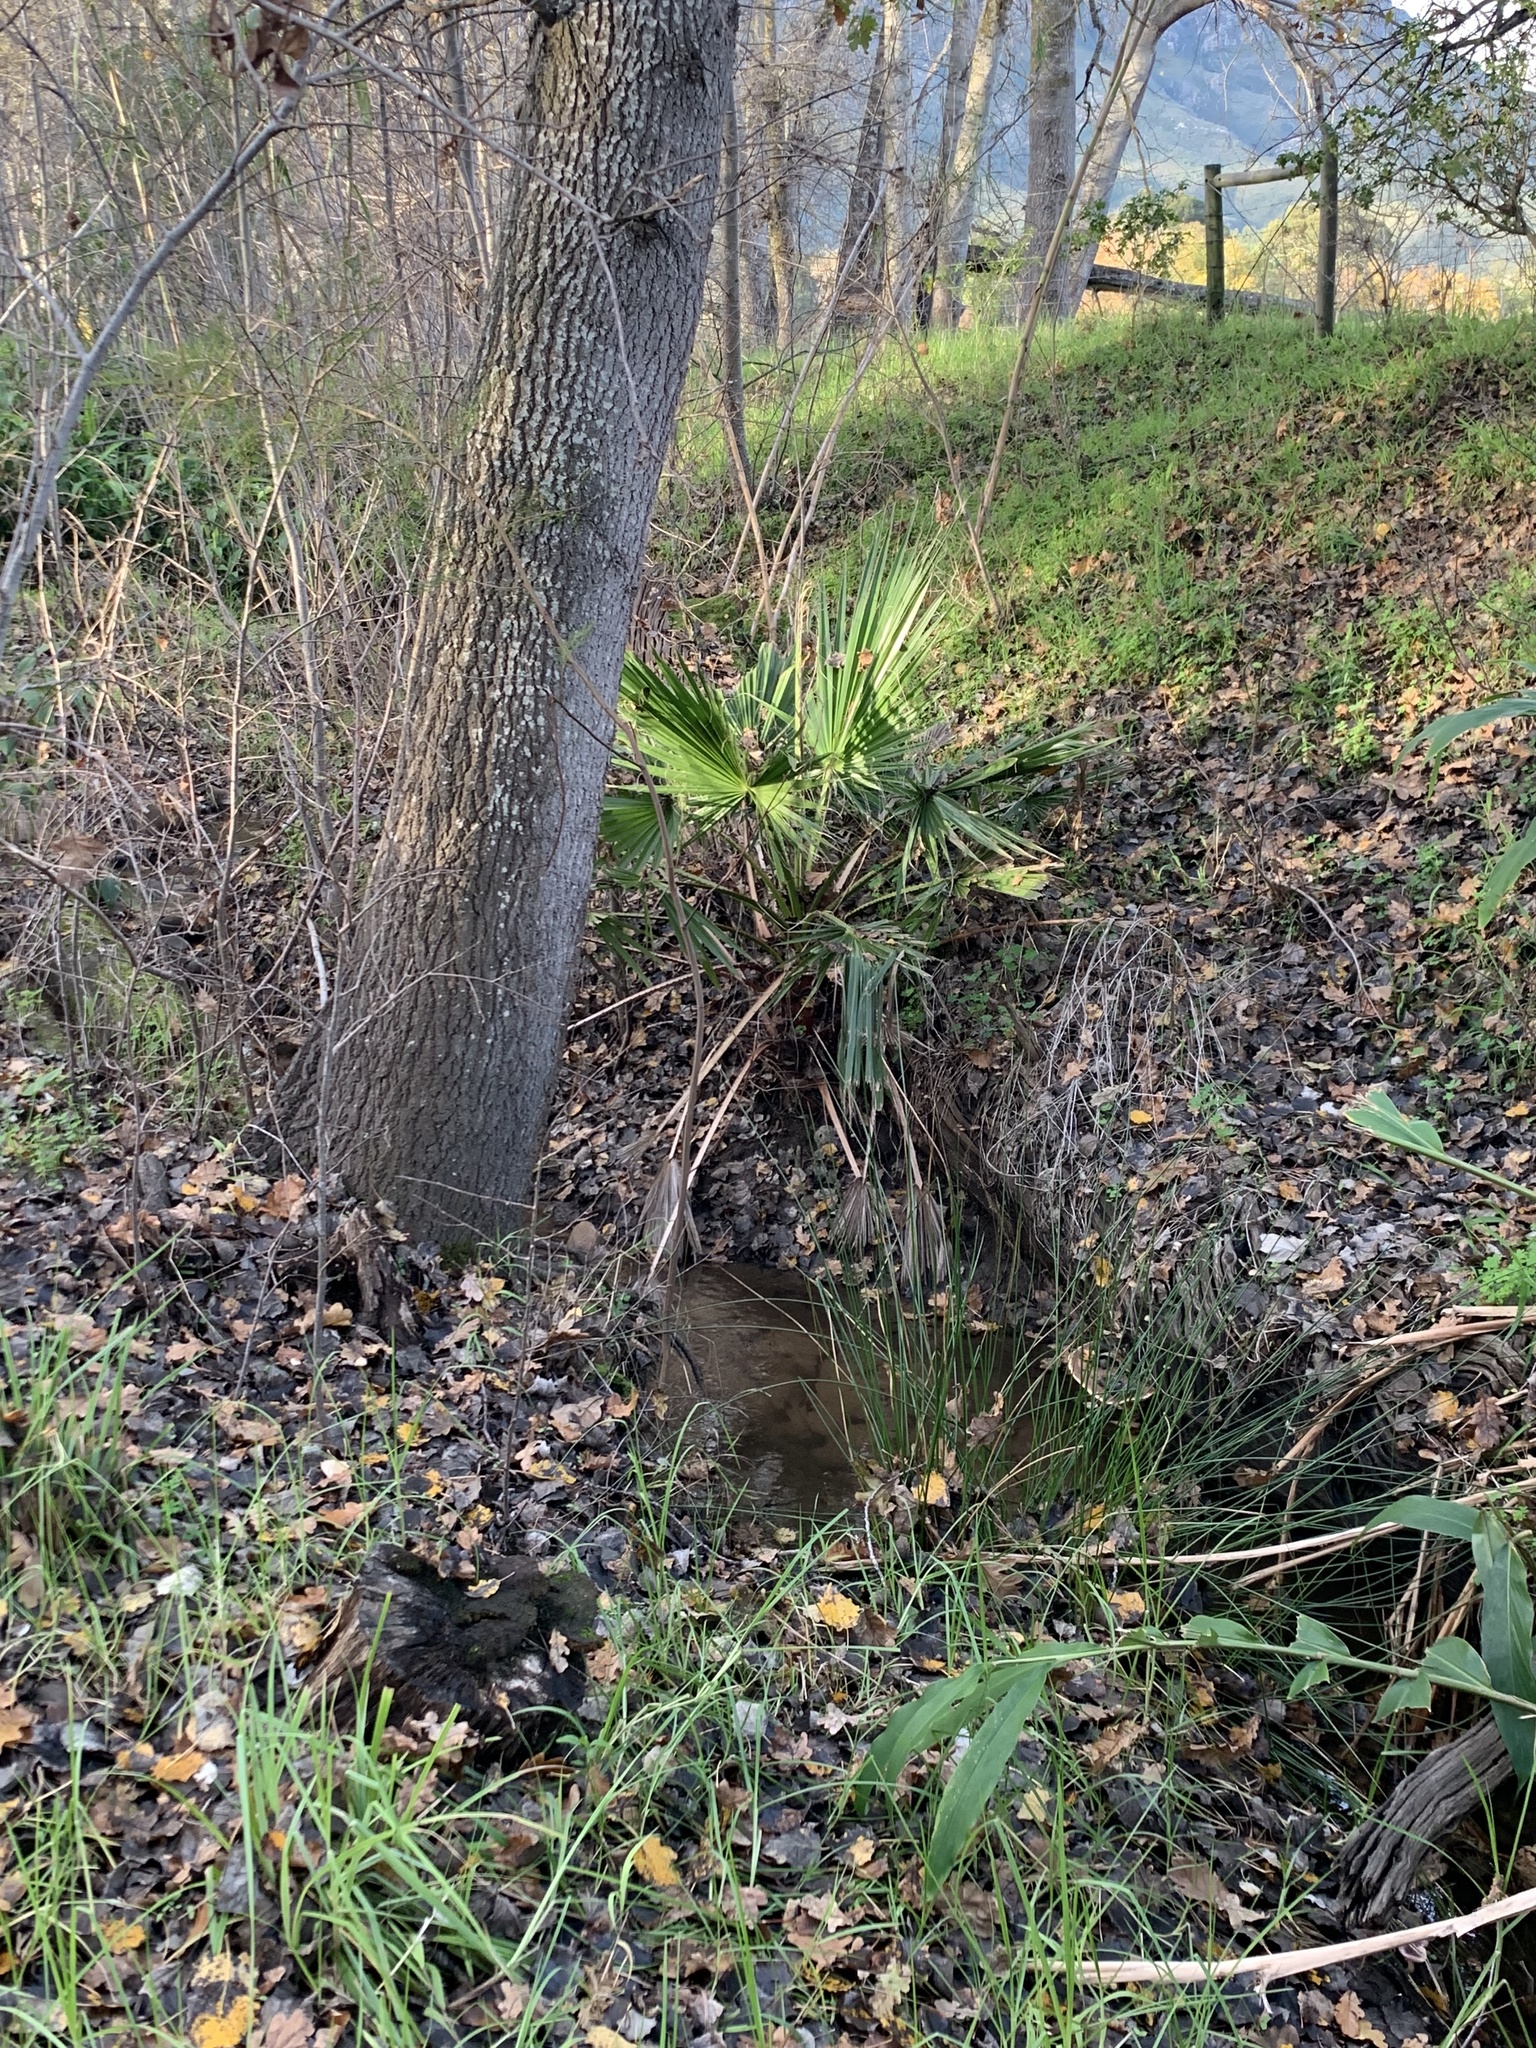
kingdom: Plantae
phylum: Tracheophyta
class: Liliopsida
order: Arecales
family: Arecaceae
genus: Washingtonia
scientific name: Washingtonia robusta
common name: Mexican fan palm
